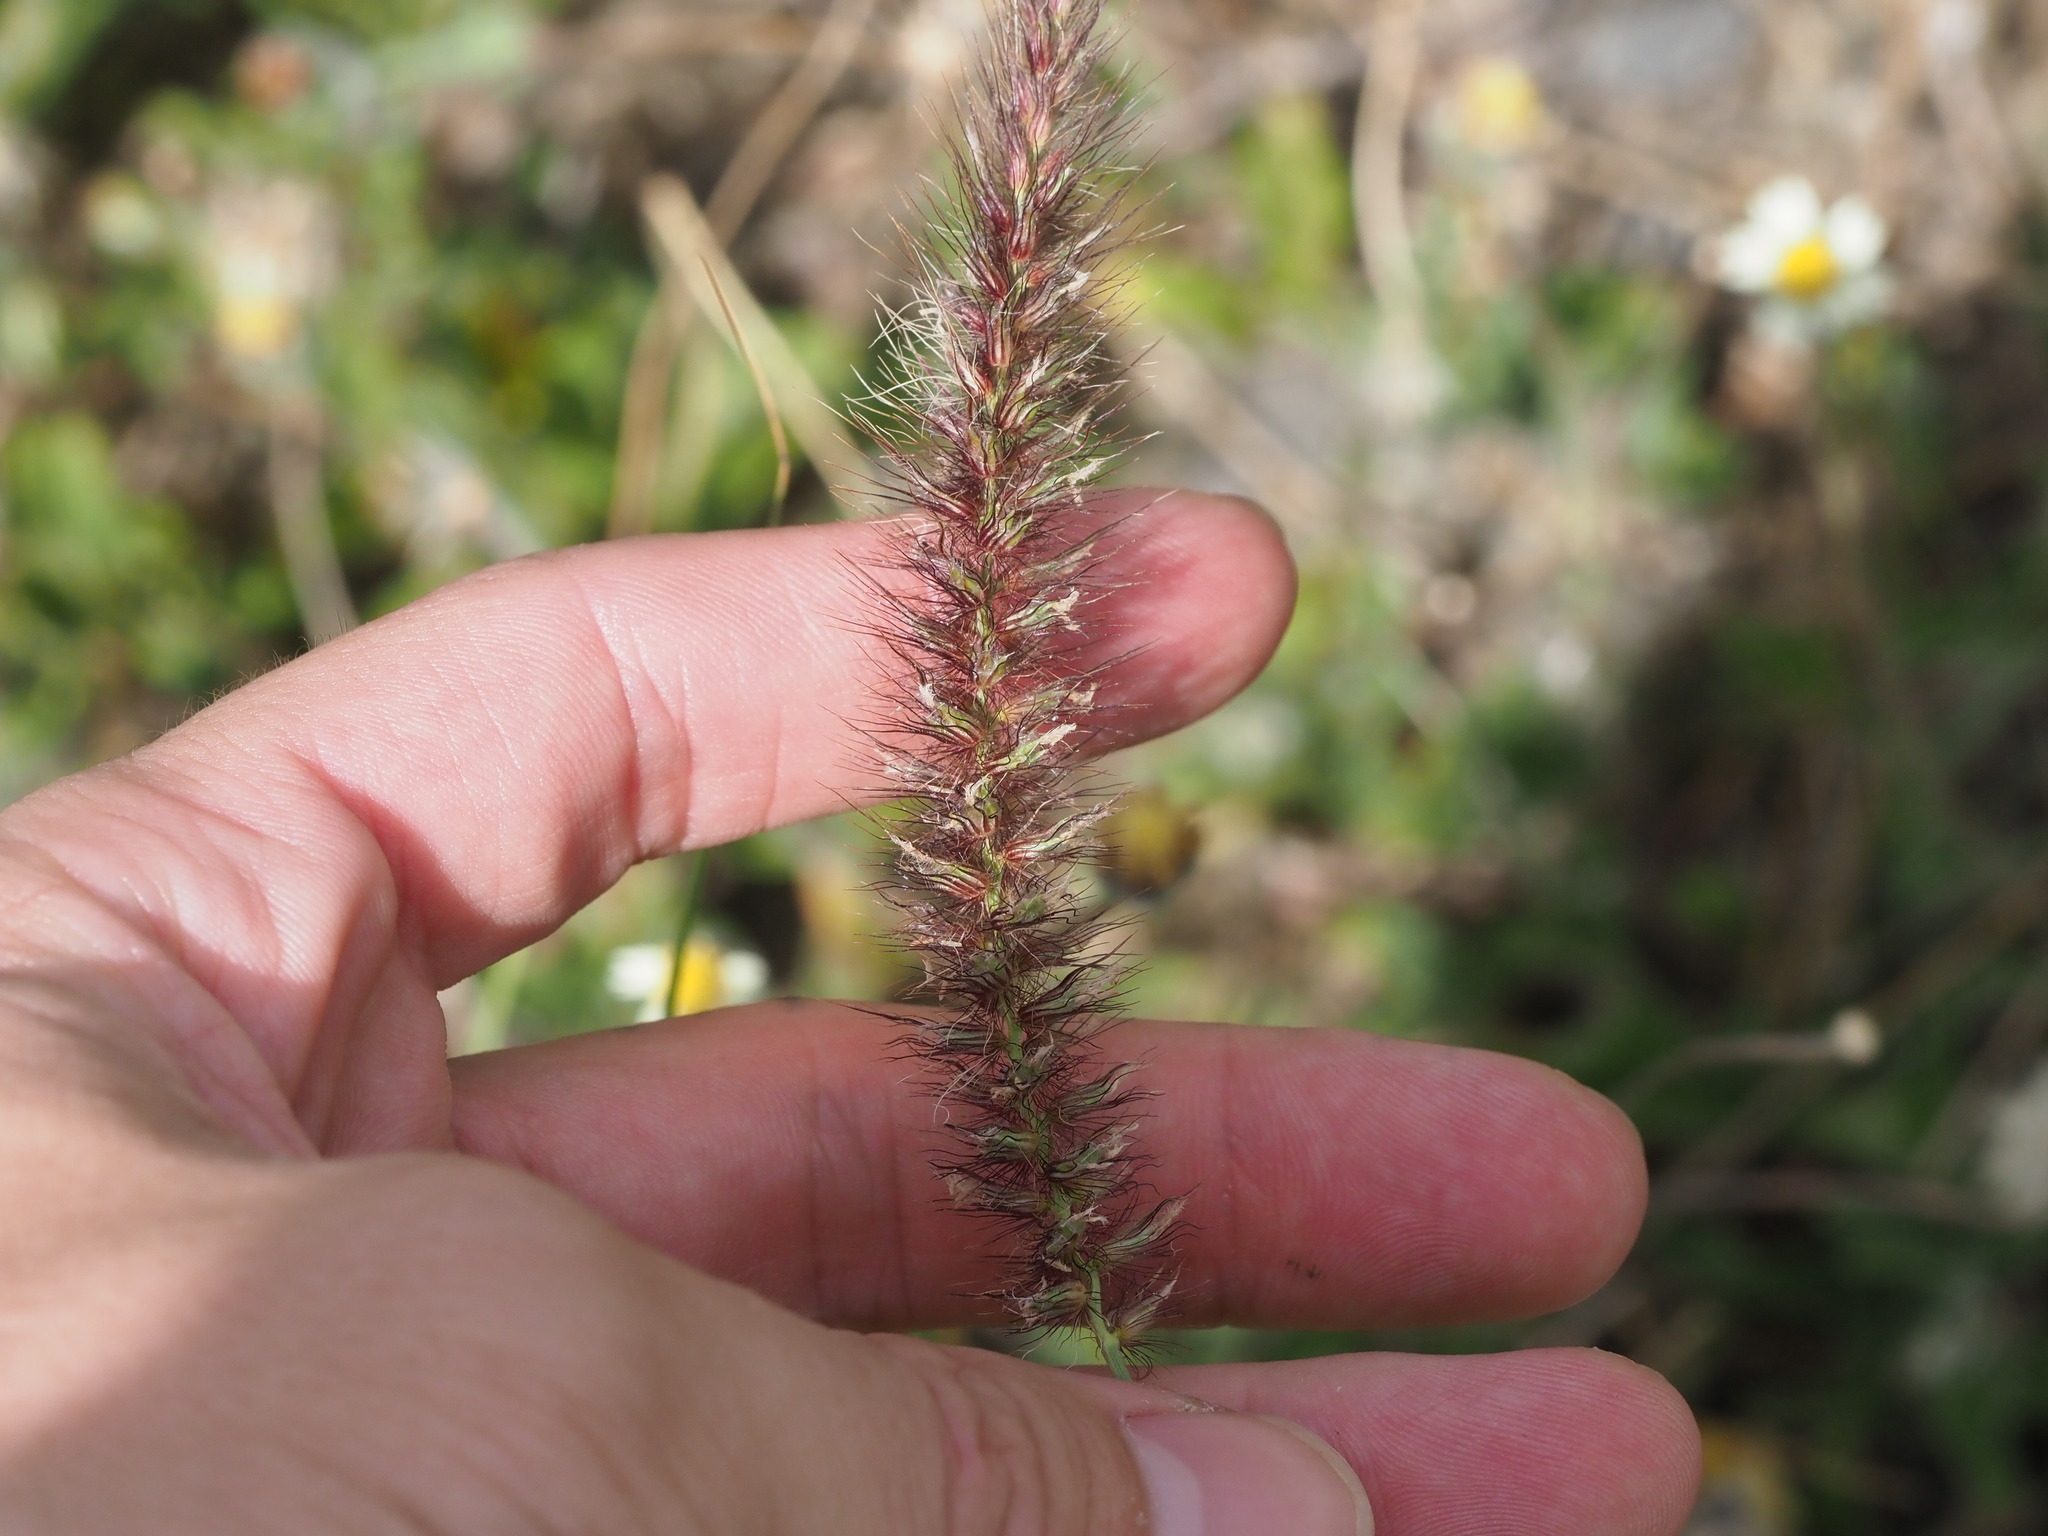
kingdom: Plantae
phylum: Tracheophyta
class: Liliopsida
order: Poales
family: Poaceae
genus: Cenchrus
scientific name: Cenchrus ciliaris
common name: Buffelgrass
